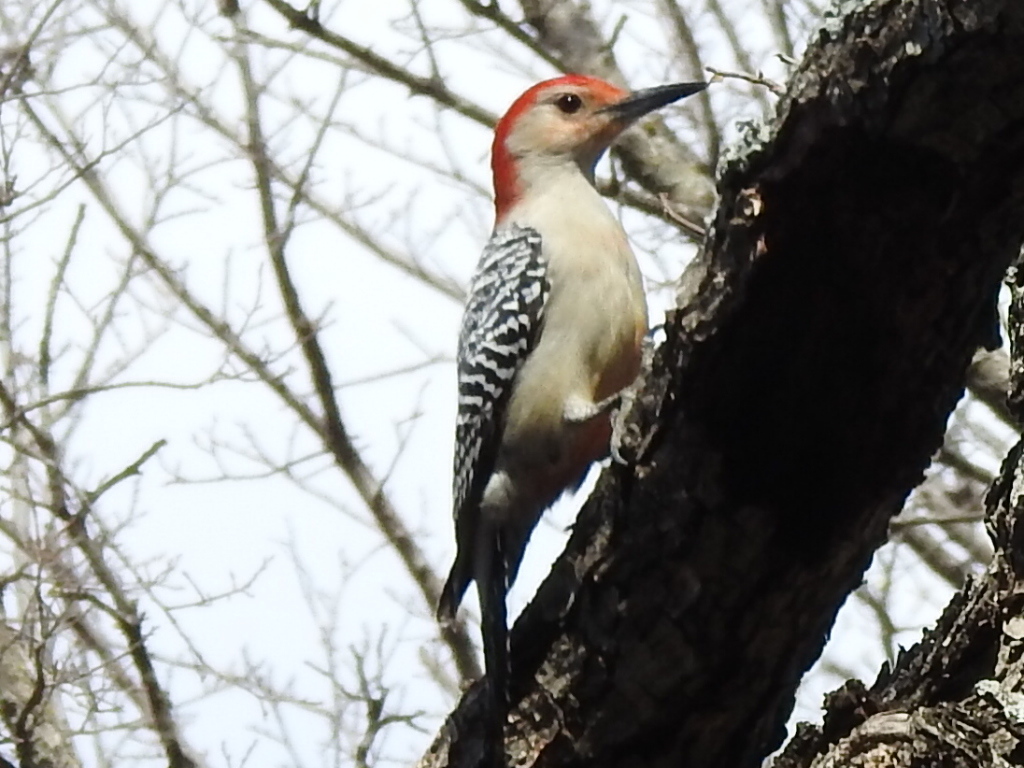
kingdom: Animalia
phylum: Chordata
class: Aves
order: Piciformes
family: Picidae
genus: Melanerpes
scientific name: Melanerpes carolinus
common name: Red-bellied woodpecker
